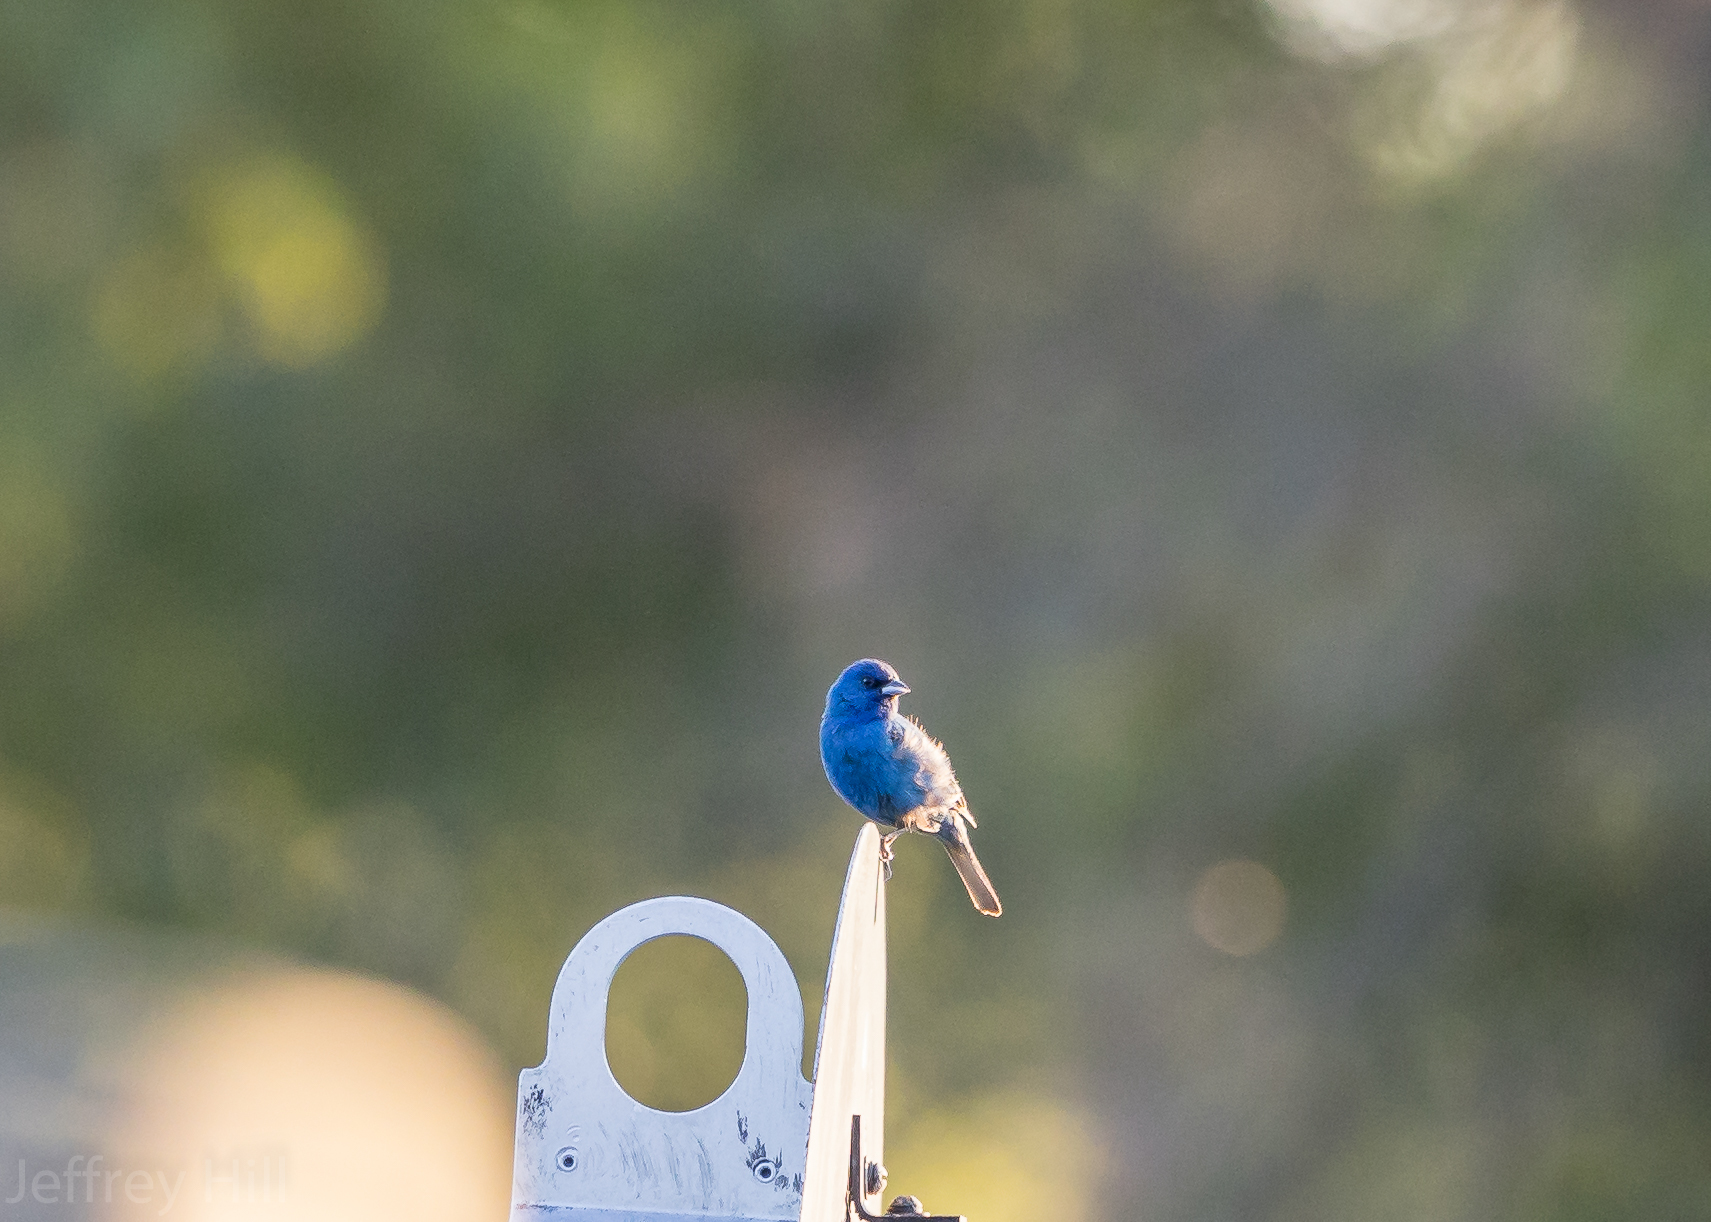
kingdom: Animalia
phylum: Chordata
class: Aves
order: Passeriformes
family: Cardinalidae
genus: Passerina
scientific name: Passerina cyanea
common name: Indigo bunting
